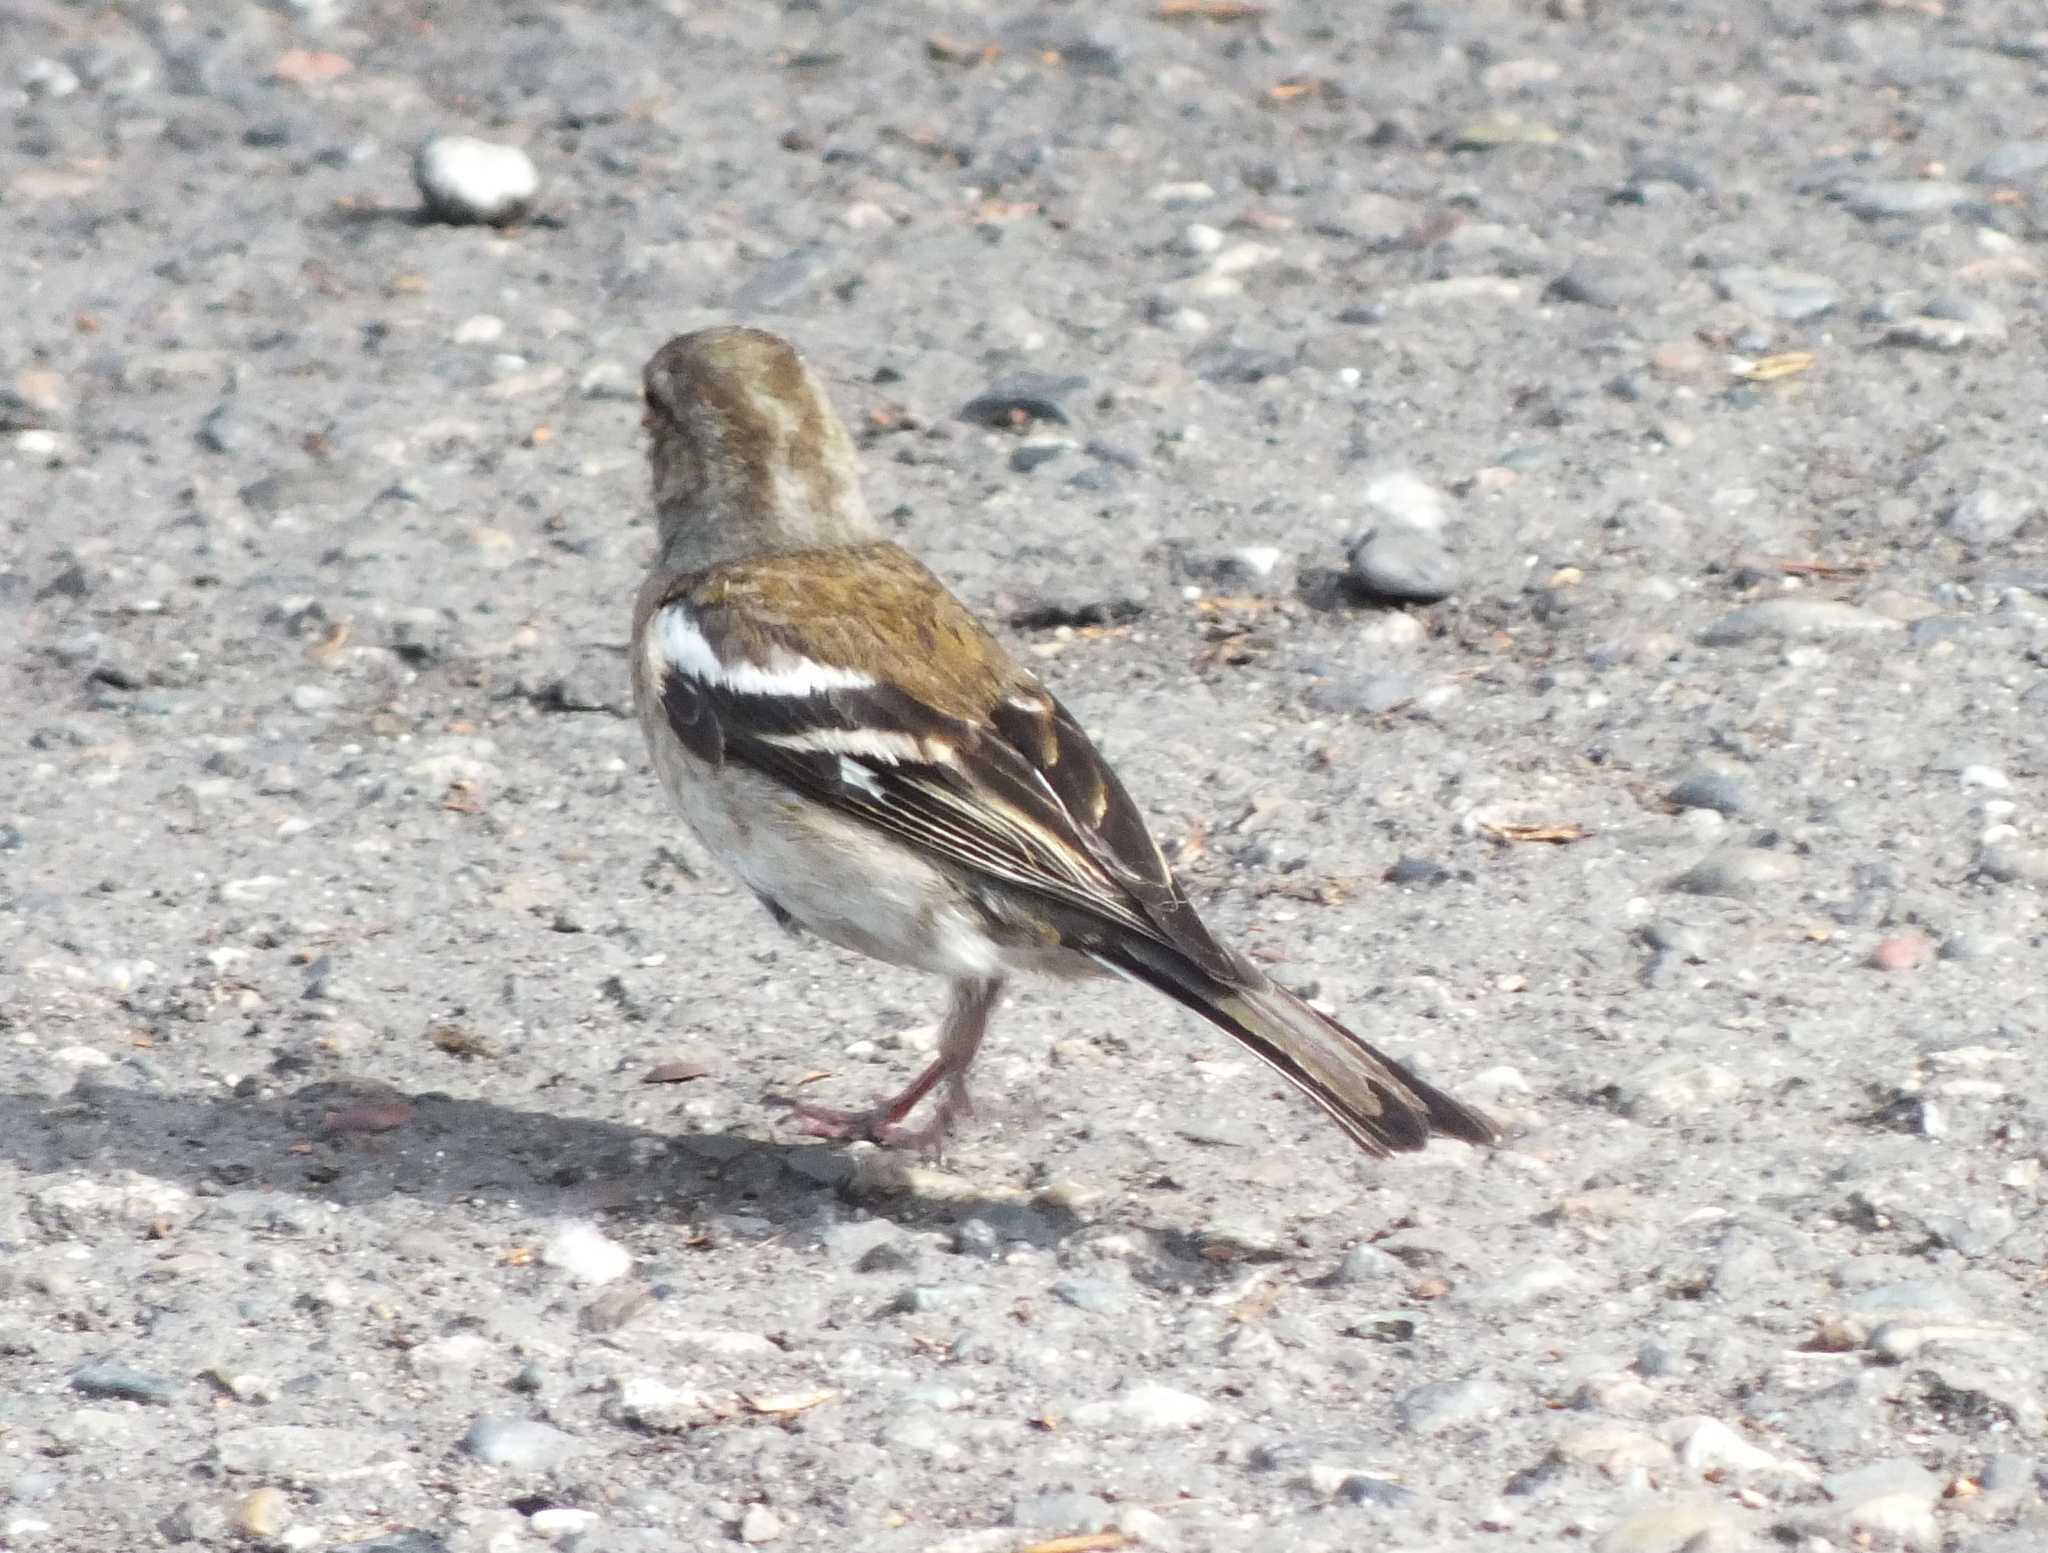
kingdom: Animalia
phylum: Chordata
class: Aves
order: Passeriformes
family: Fringillidae
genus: Fringilla
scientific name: Fringilla coelebs
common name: Common chaffinch
